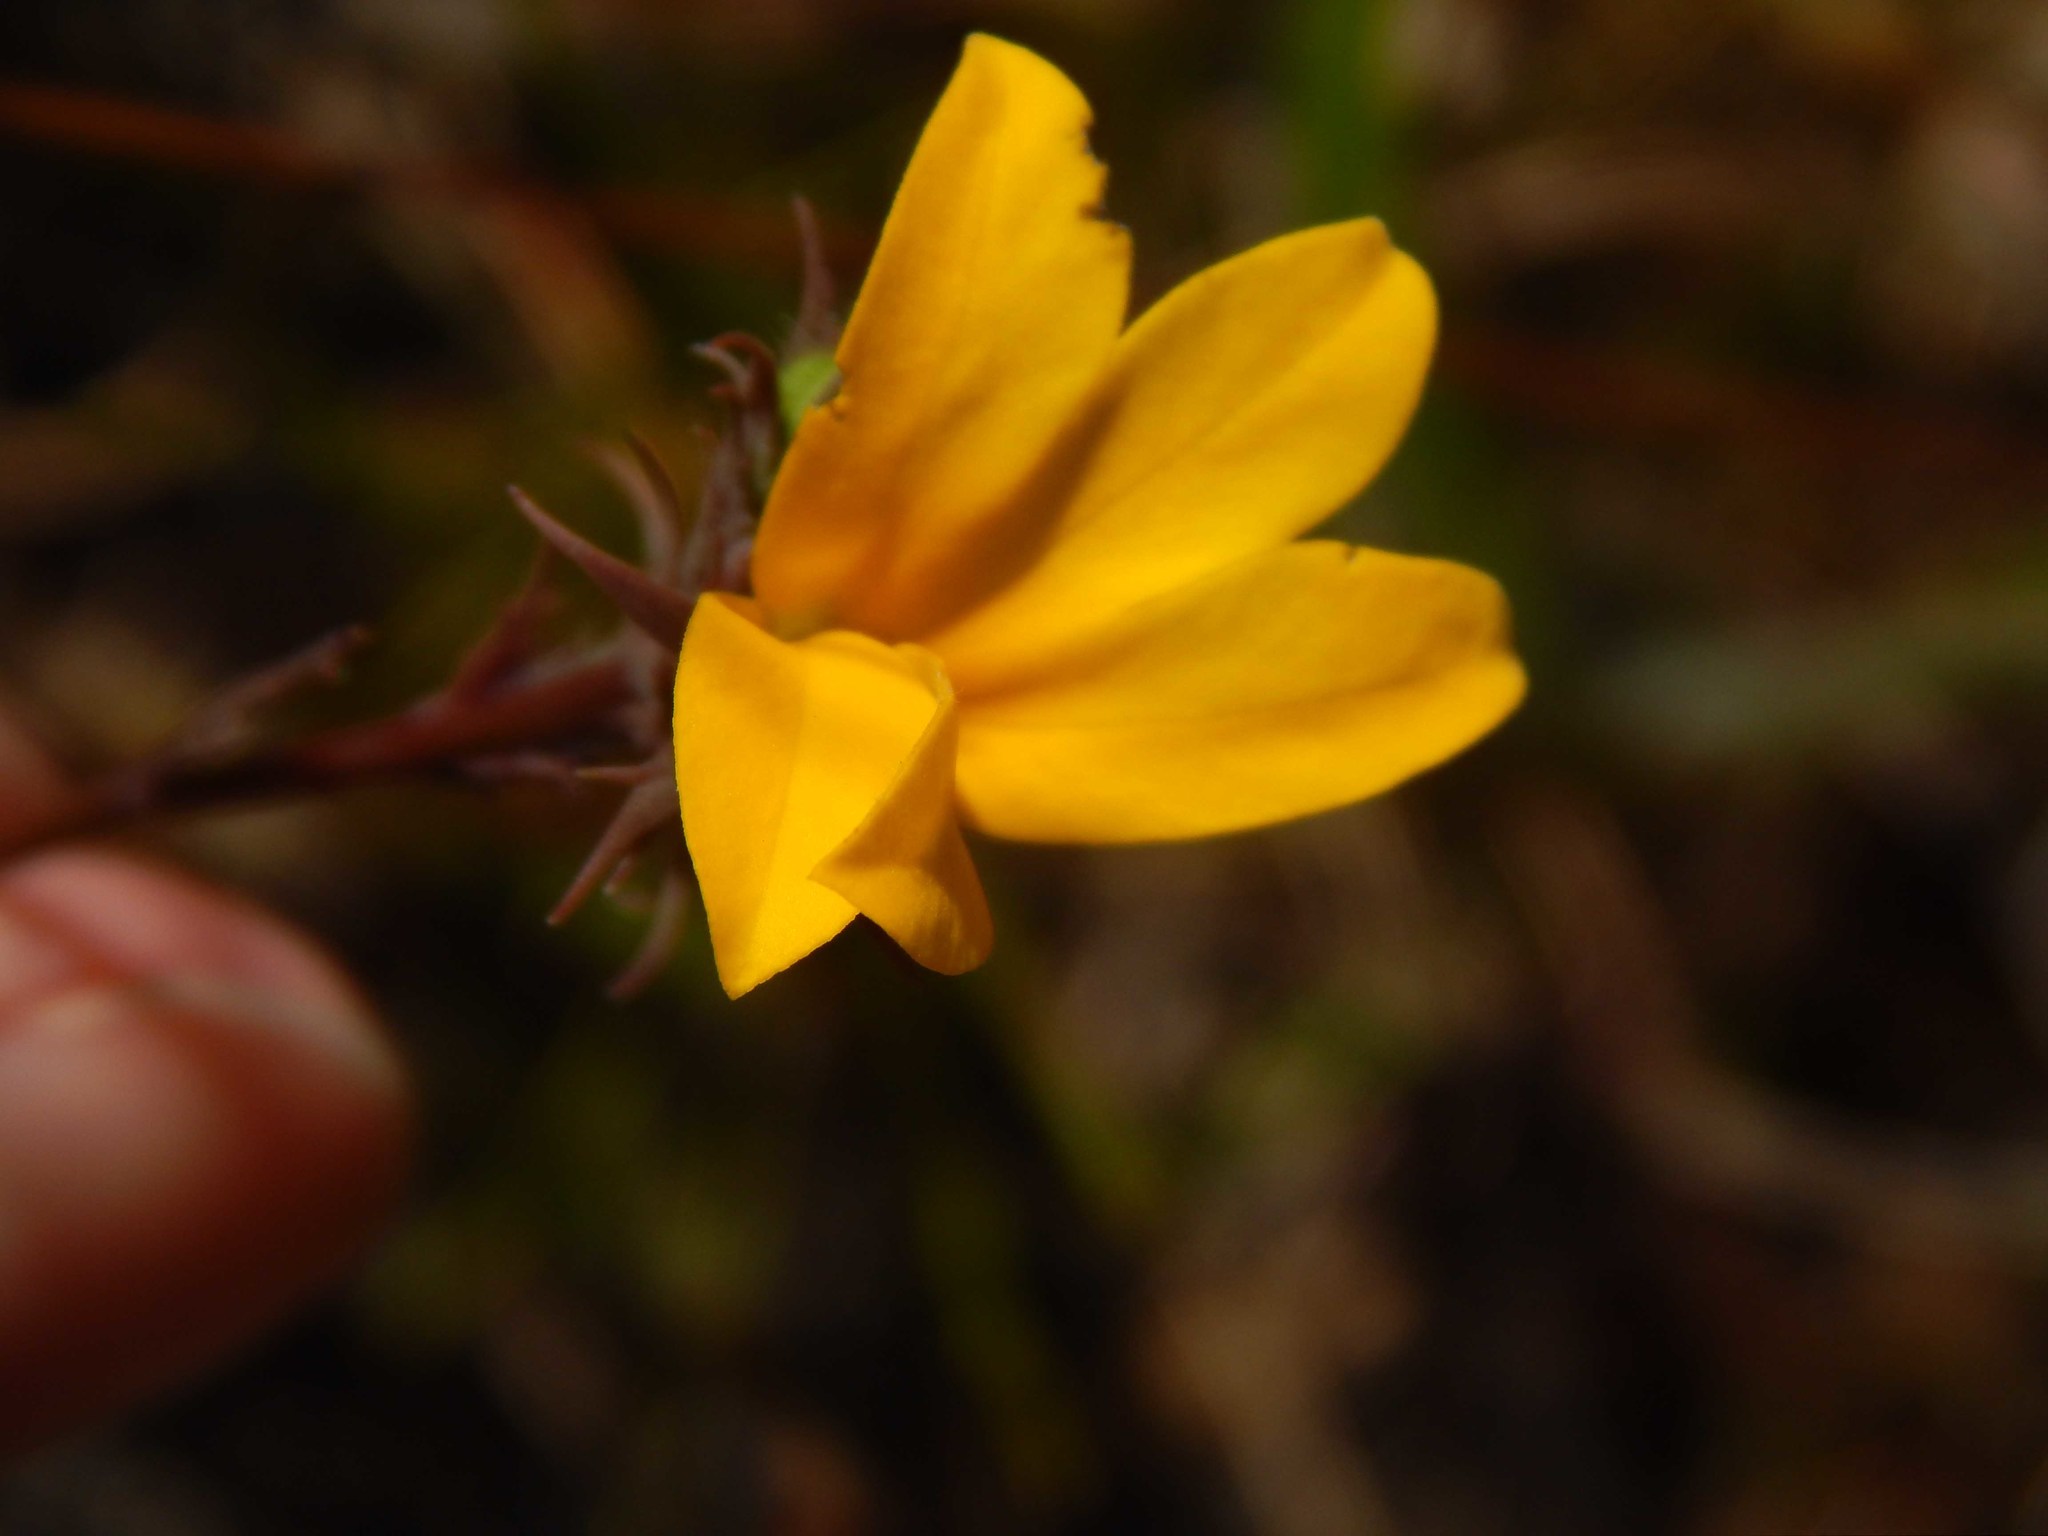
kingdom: Plantae
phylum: Tracheophyta
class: Magnoliopsida
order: Asterales
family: Campanulaceae
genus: Monopsis
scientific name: Monopsis lutea
